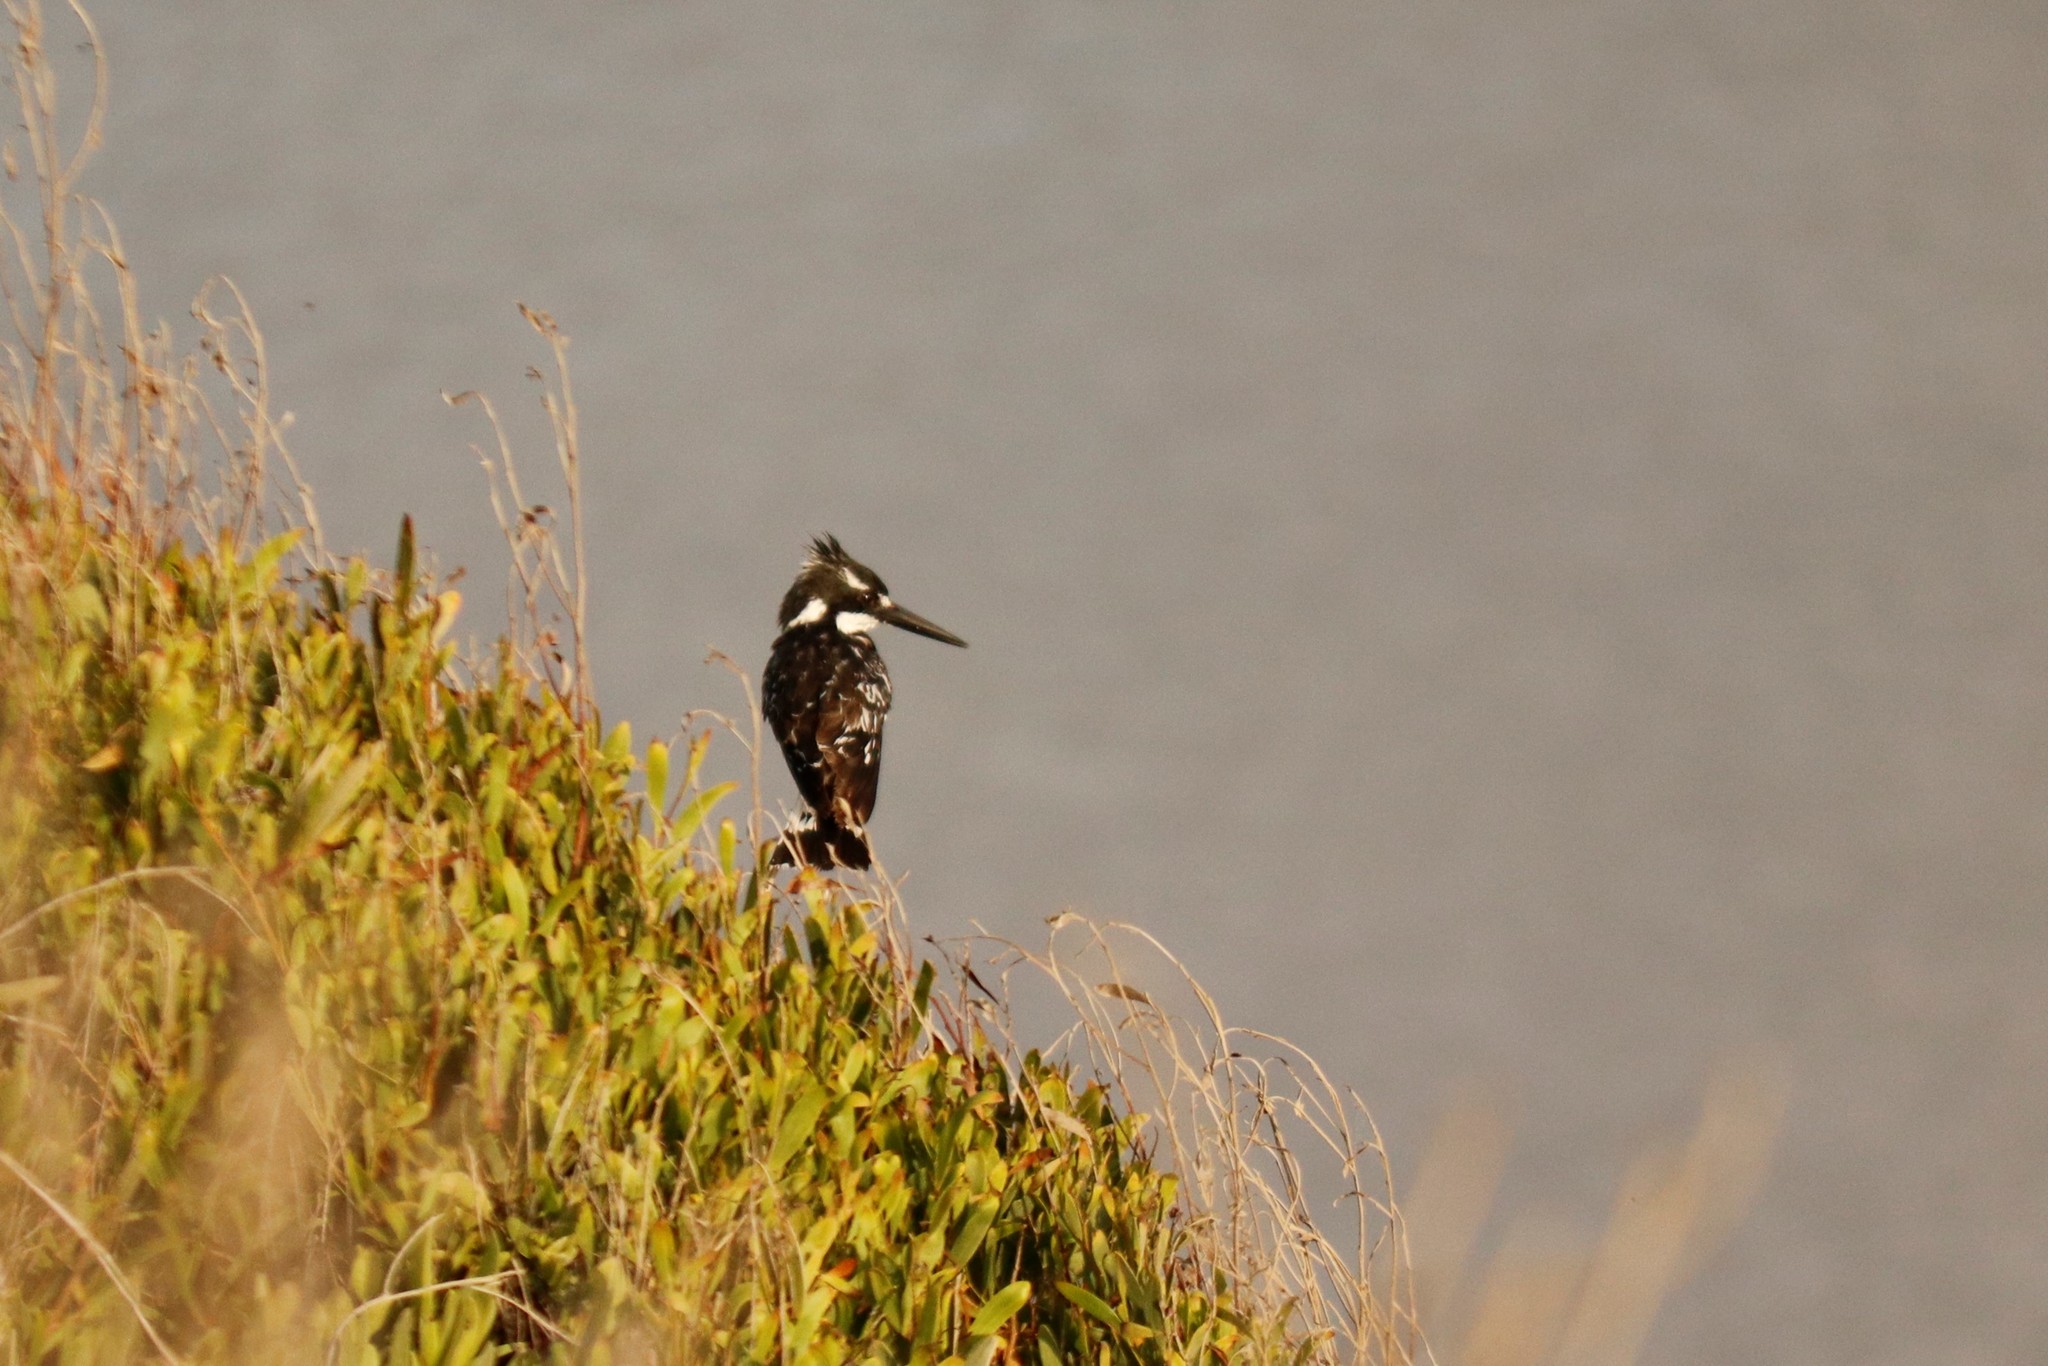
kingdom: Animalia
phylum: Chordata
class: Aves
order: Coraciiformes
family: Alcedinidae
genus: Ceryle
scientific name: Ceryle rudis
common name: Pied kingfisher
